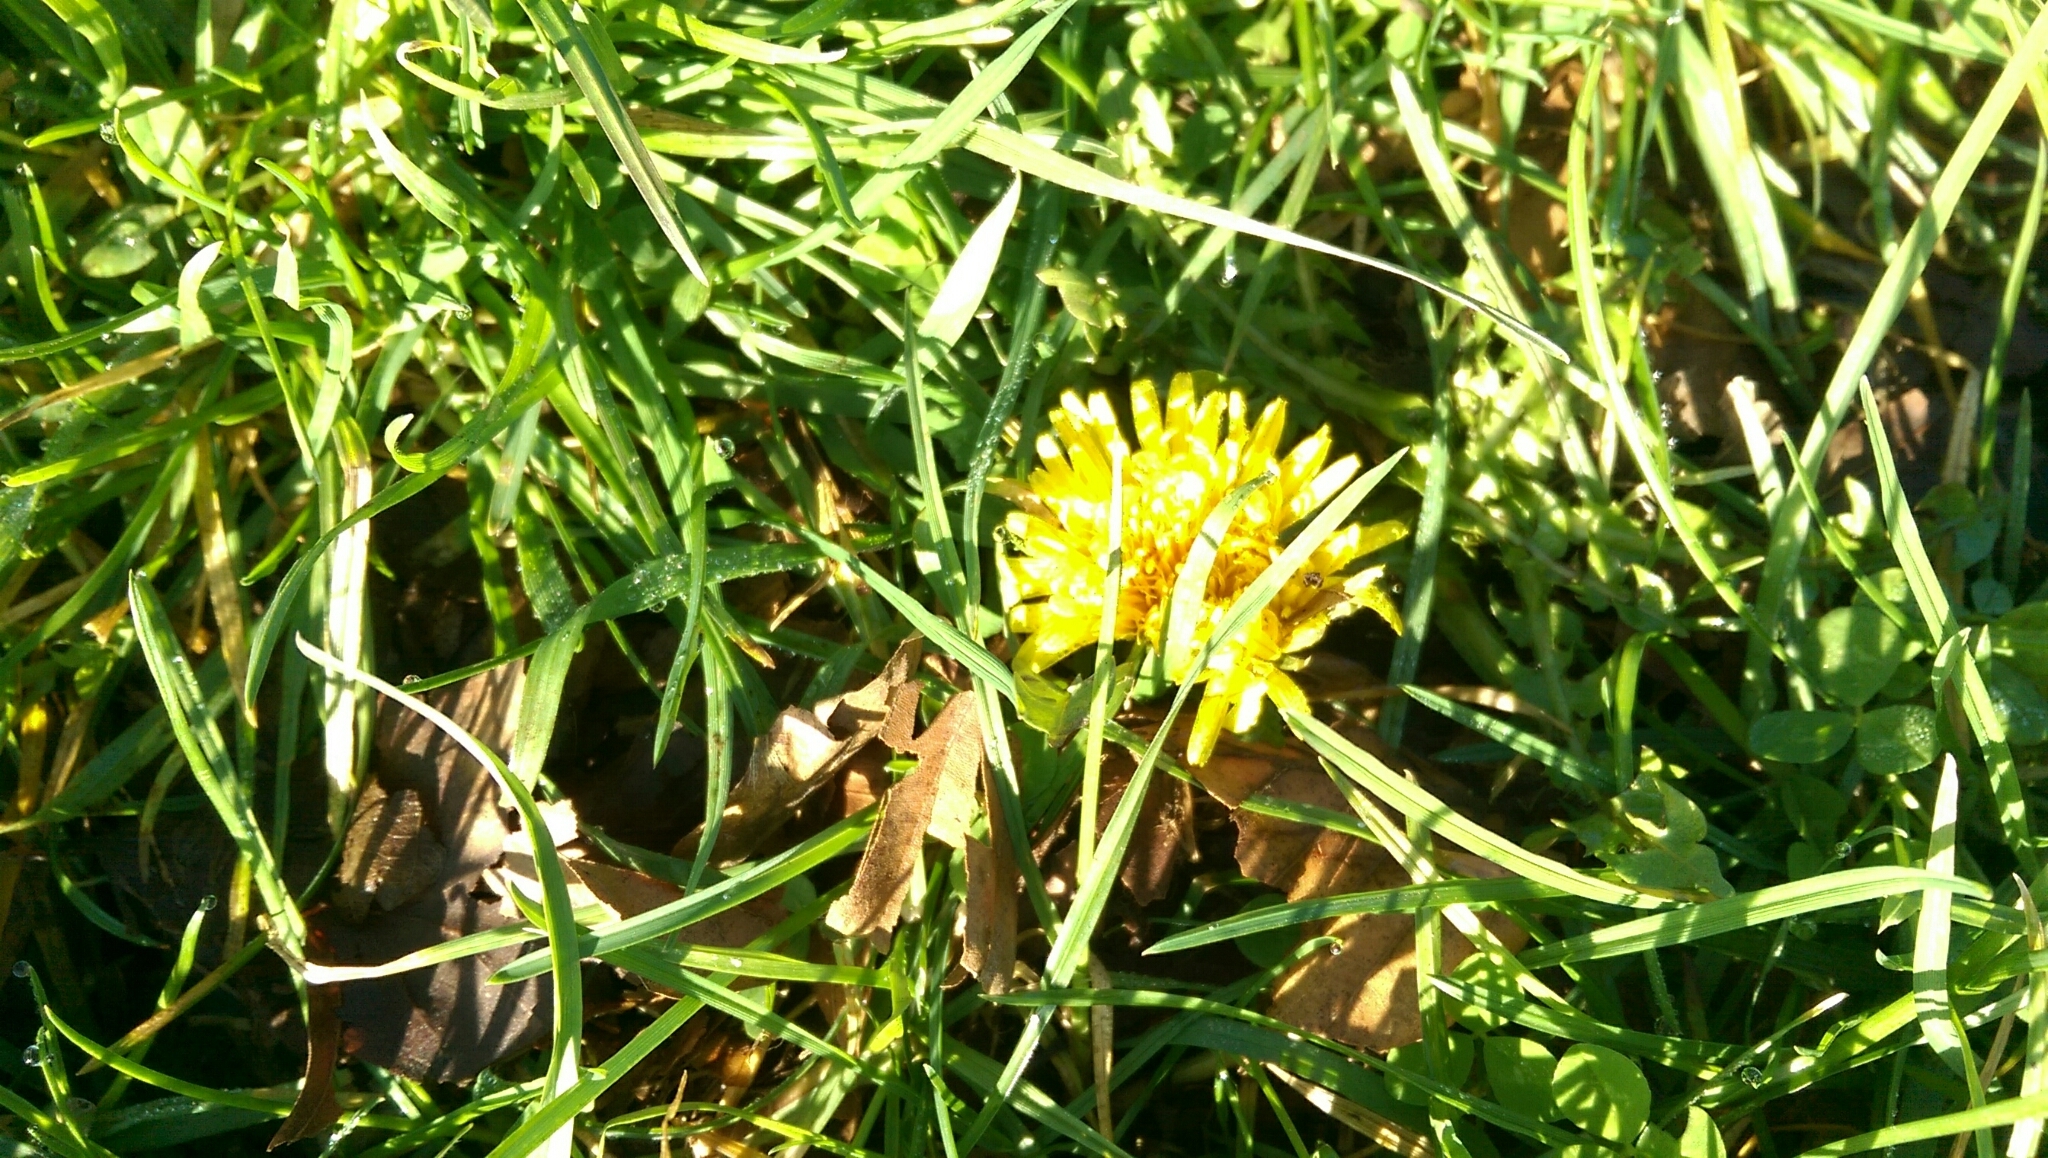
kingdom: Plantae
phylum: Tracheophyta
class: Magnoliopsida
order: Asterales
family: Asteraceae
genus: Taraxacum
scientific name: Taraxacum officinale
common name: Common dandelion
